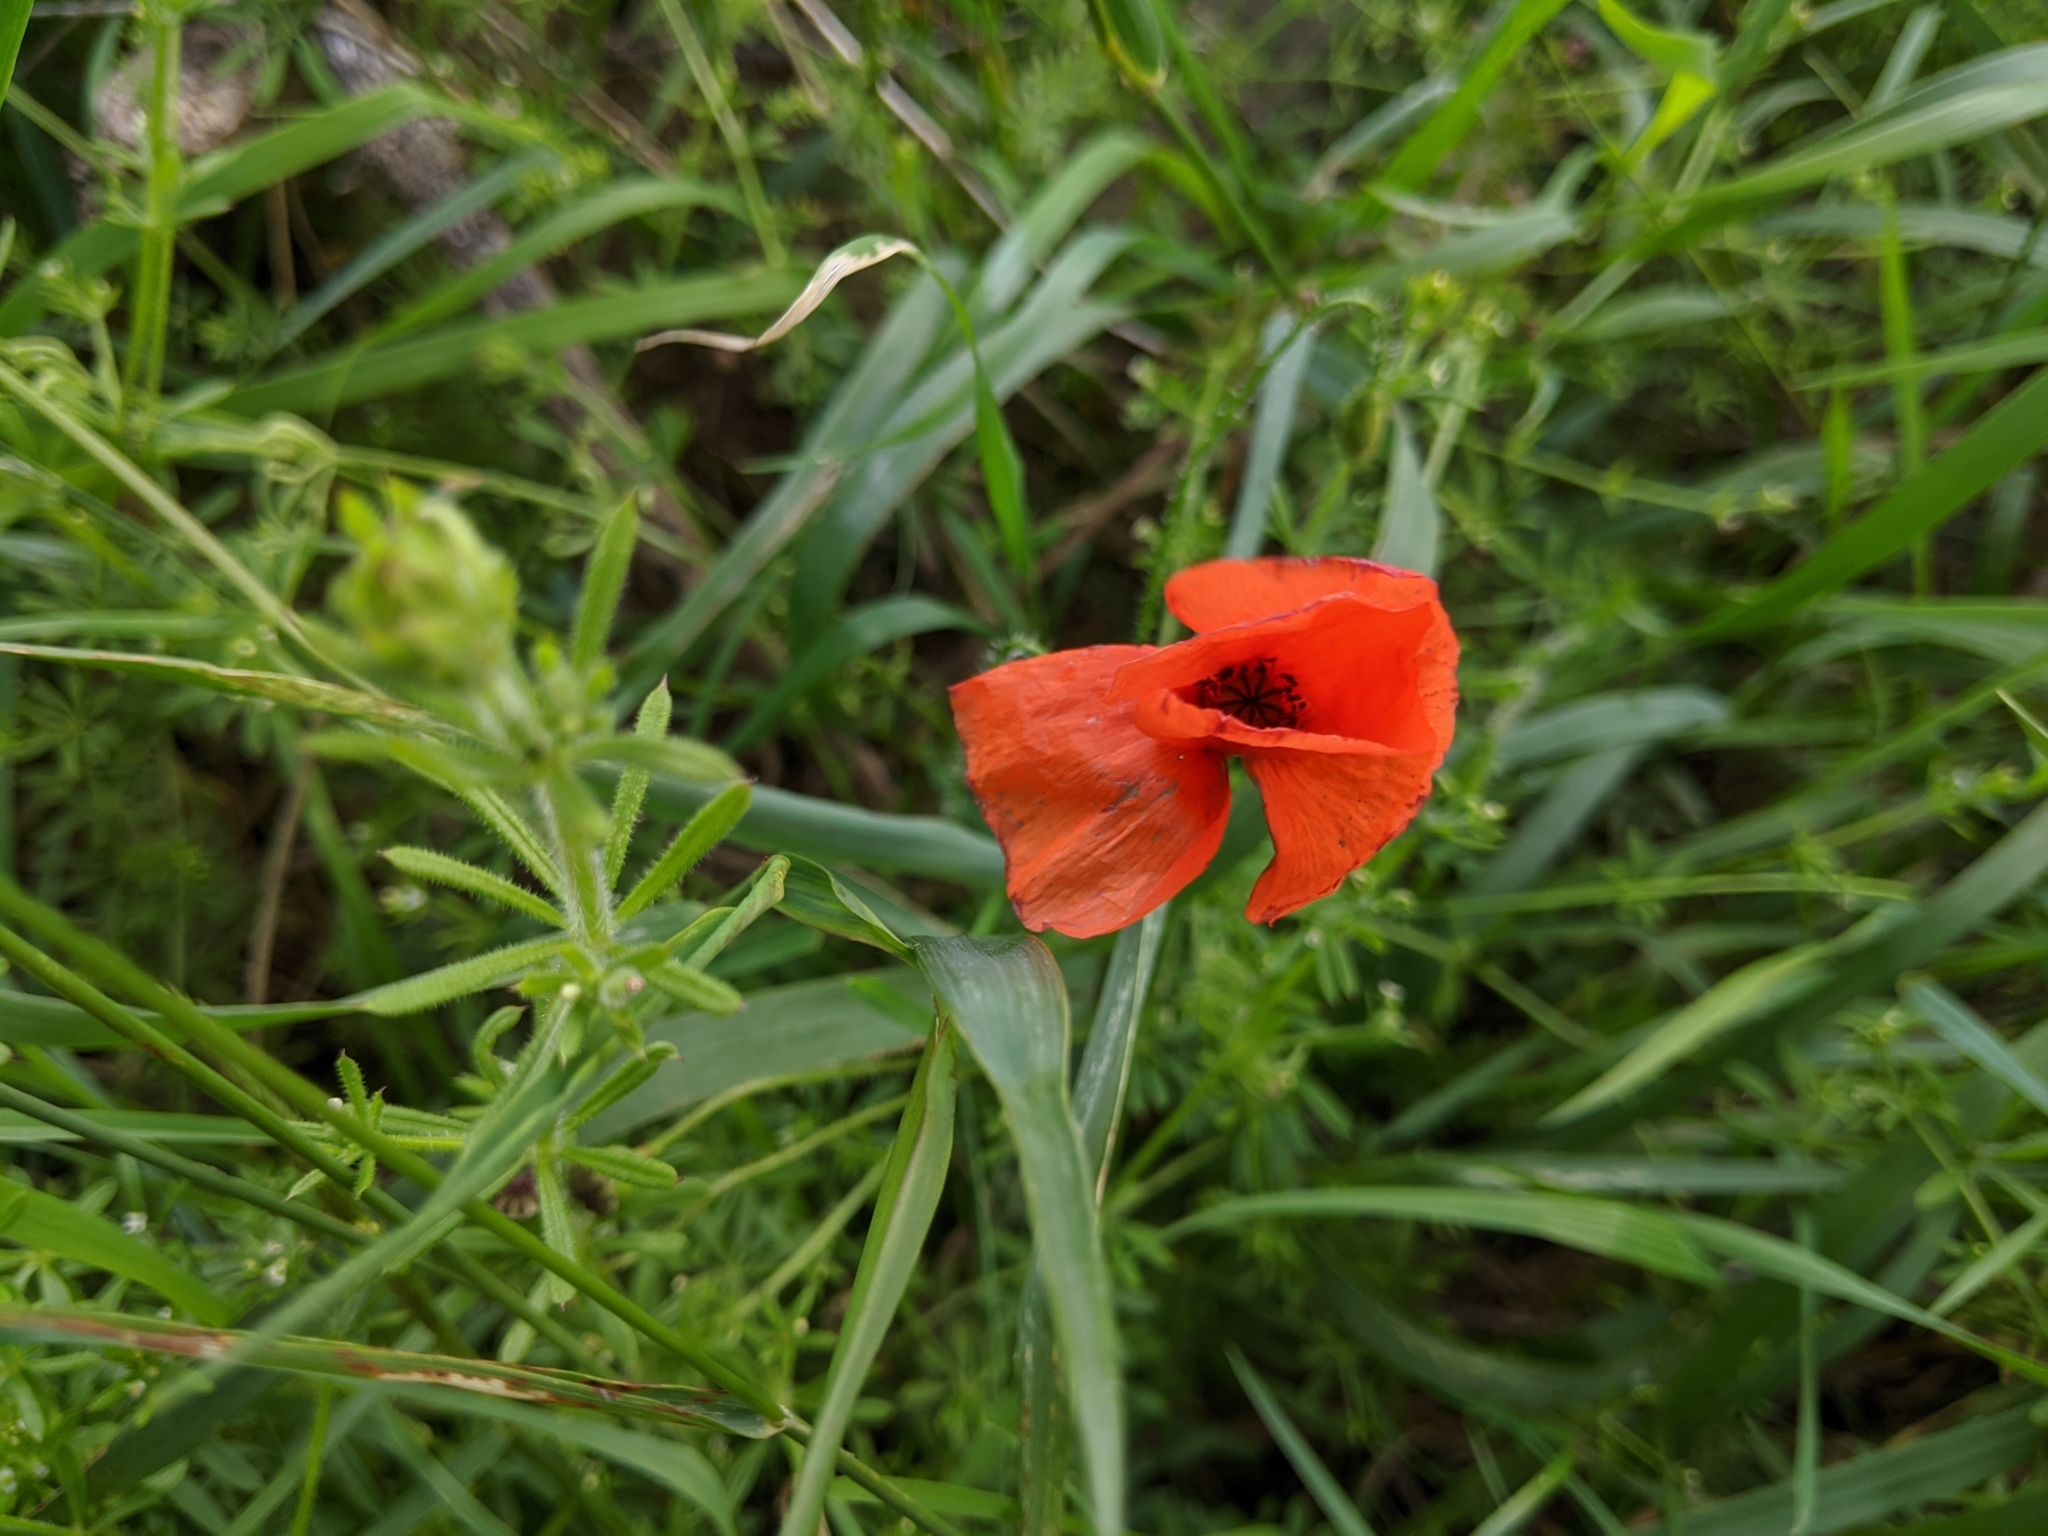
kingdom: Plantae
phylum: Tracheophyta
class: Magnoliopsida
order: Ranunculales
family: Papaveraceae
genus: Papaver
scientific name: Papaver rhoeas
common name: Corn poppy
